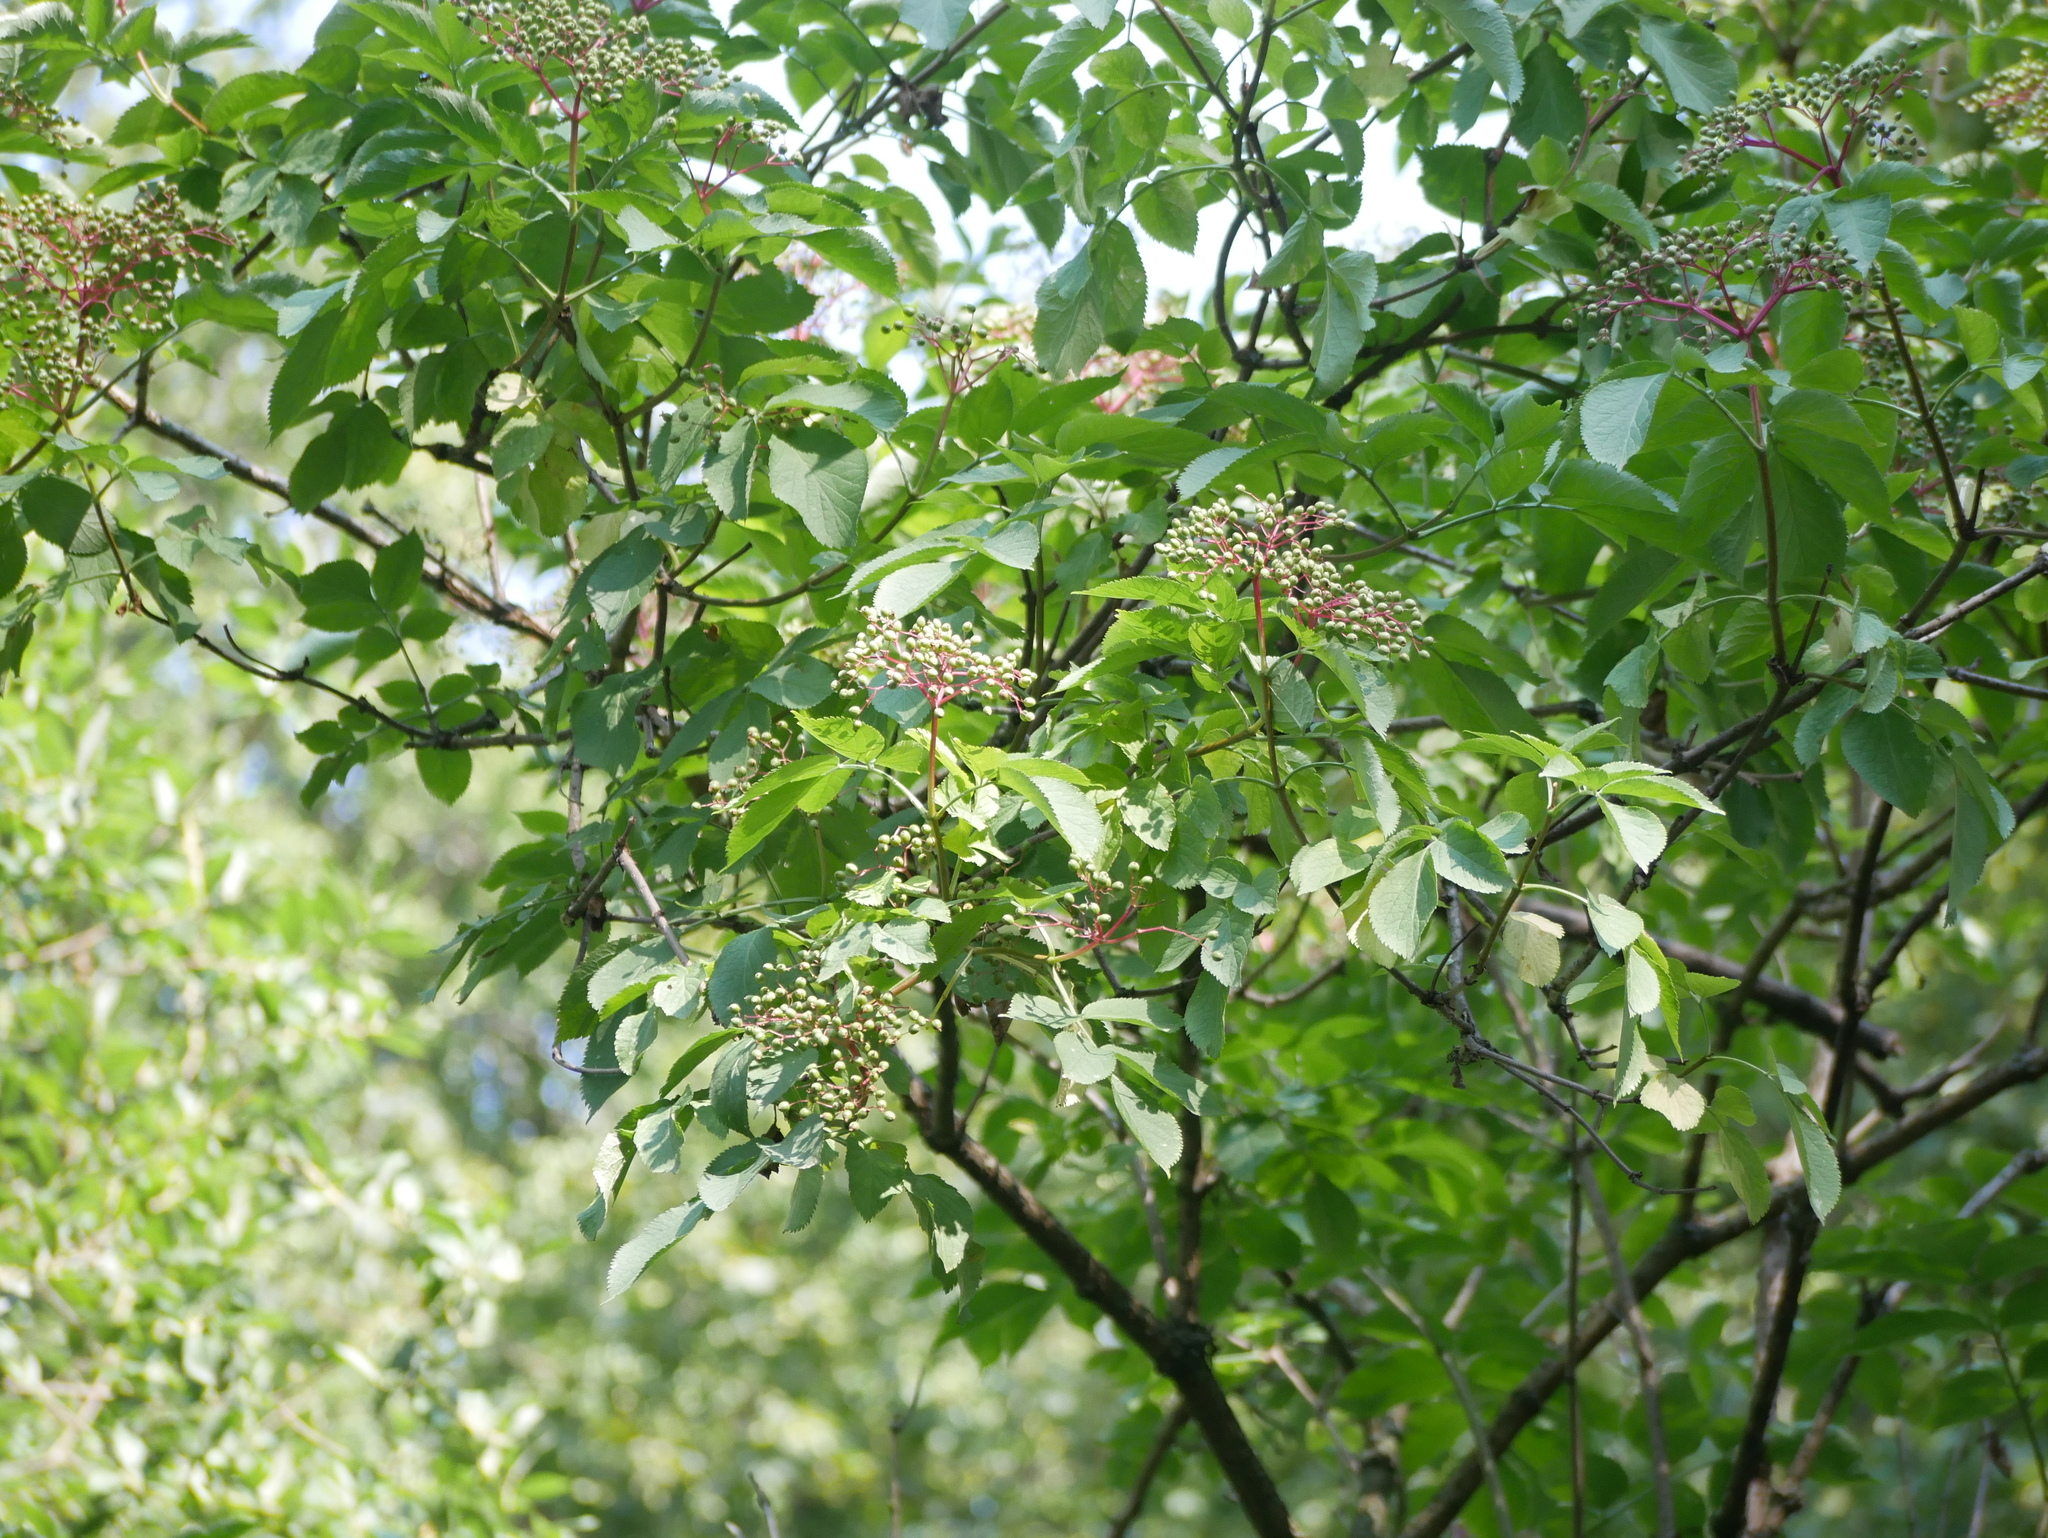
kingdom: Plantae
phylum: Tracheophyta
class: Magnoliopsida
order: Dipsacales
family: Viburnaceae
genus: Sambucus
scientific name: Sambucus nigra
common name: Elder
